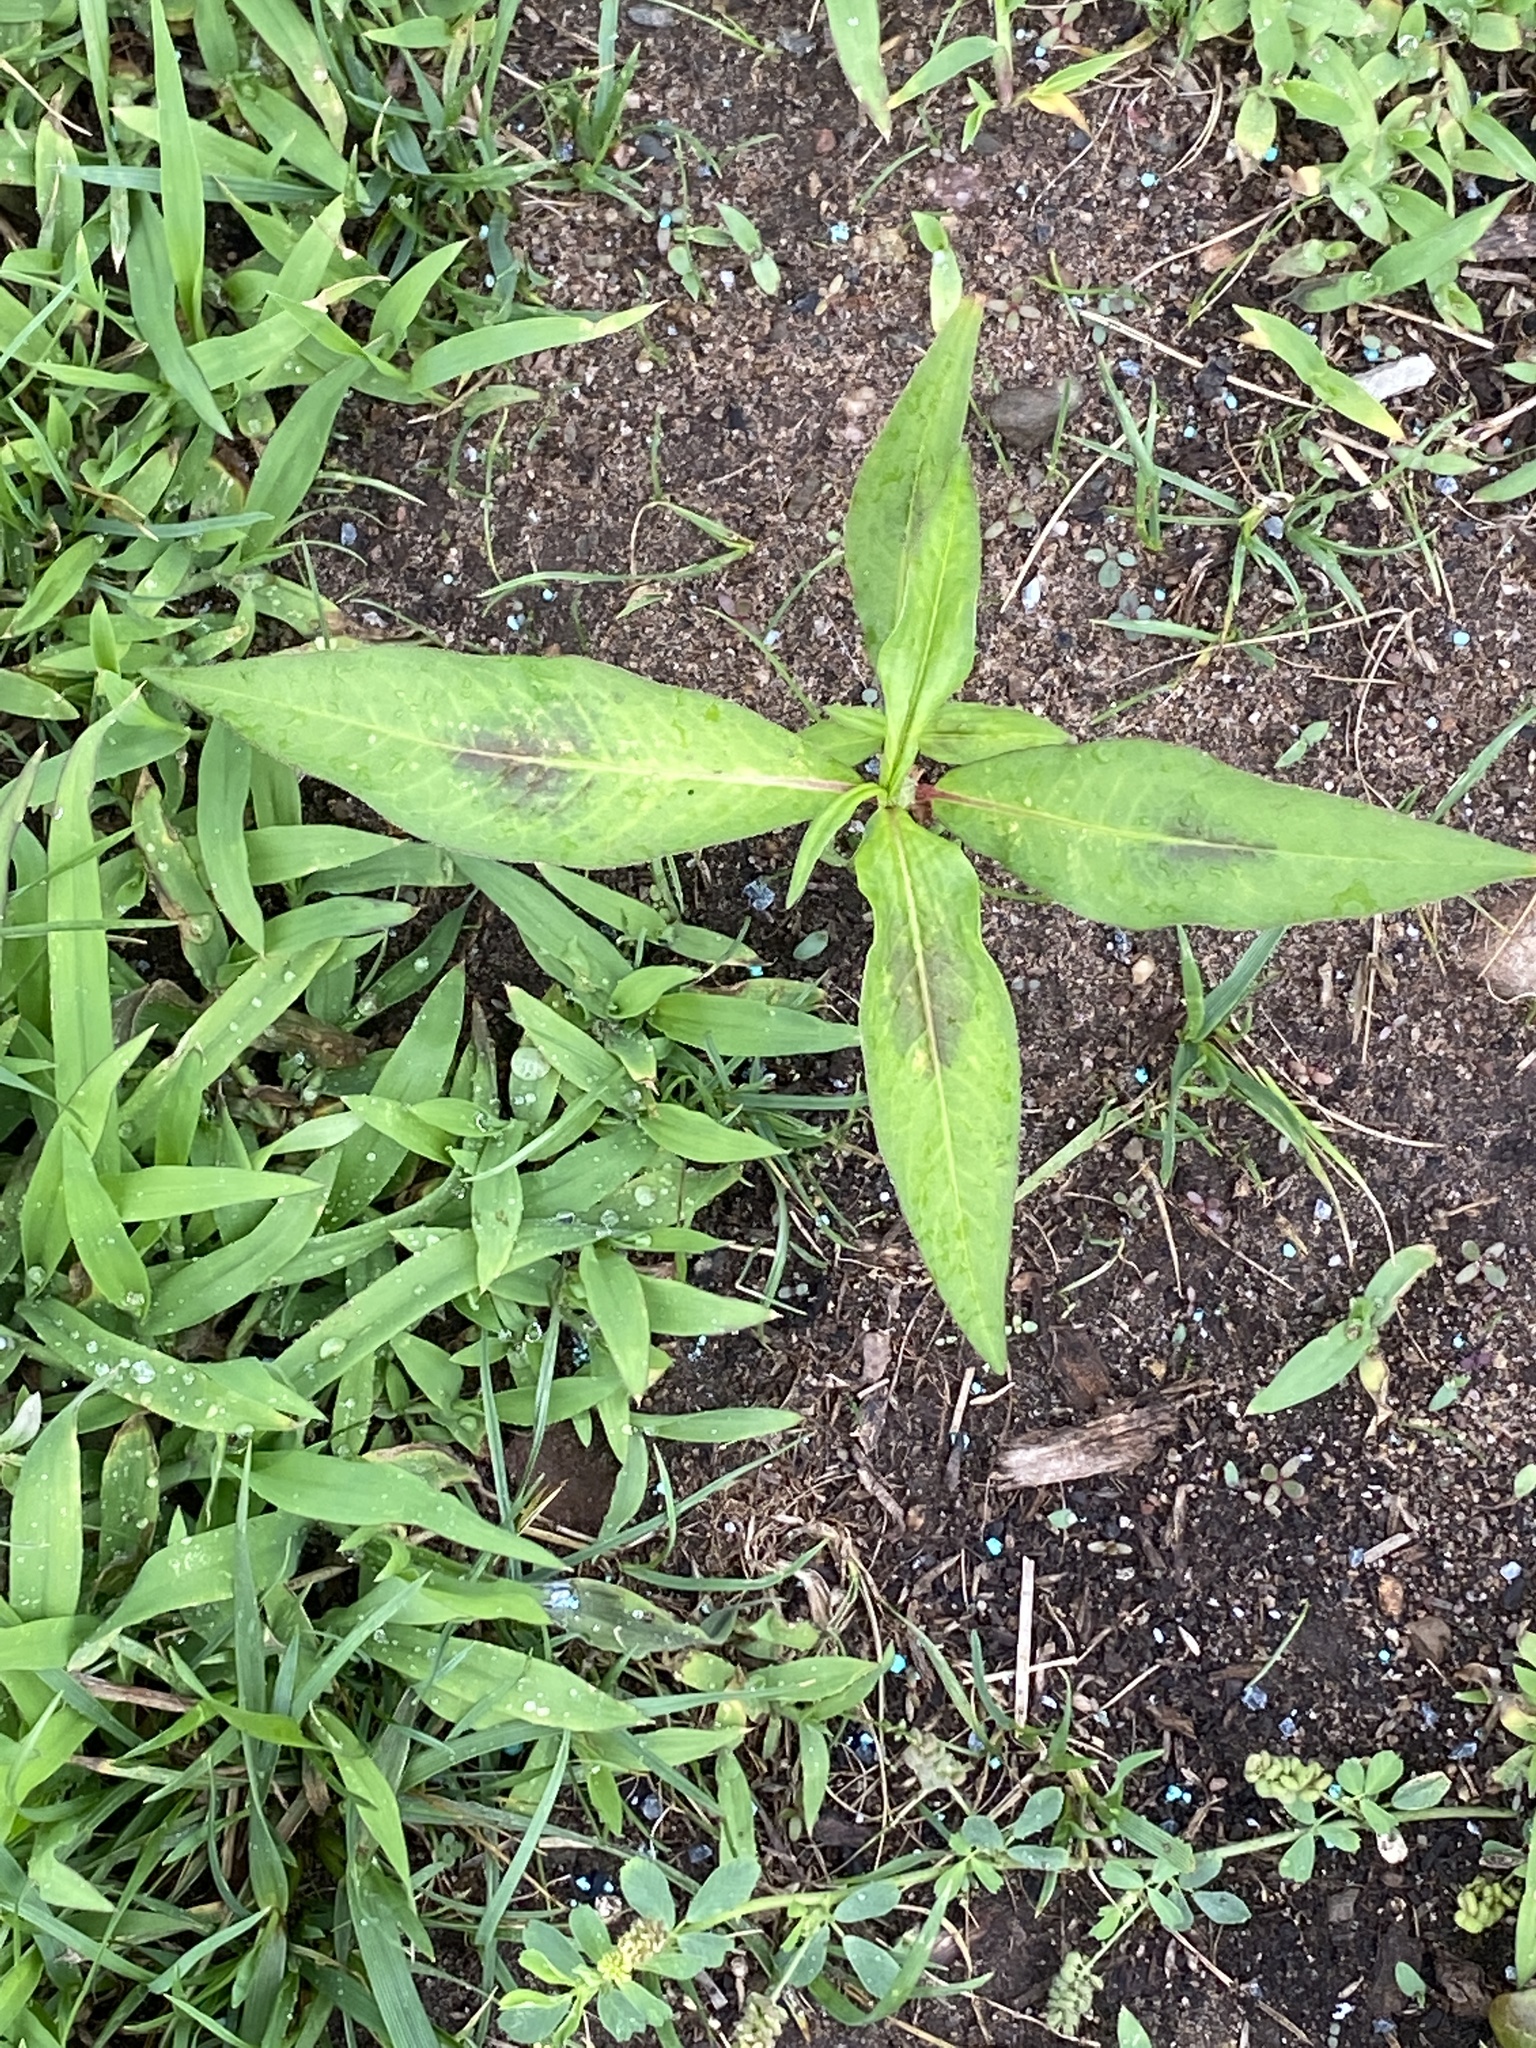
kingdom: Plantae
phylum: Tracheophyta
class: Magnoliopsida
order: Caryophyllales
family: Polygonaceae
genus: Persicaria
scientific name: Persicaria maculosa
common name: Redshank
